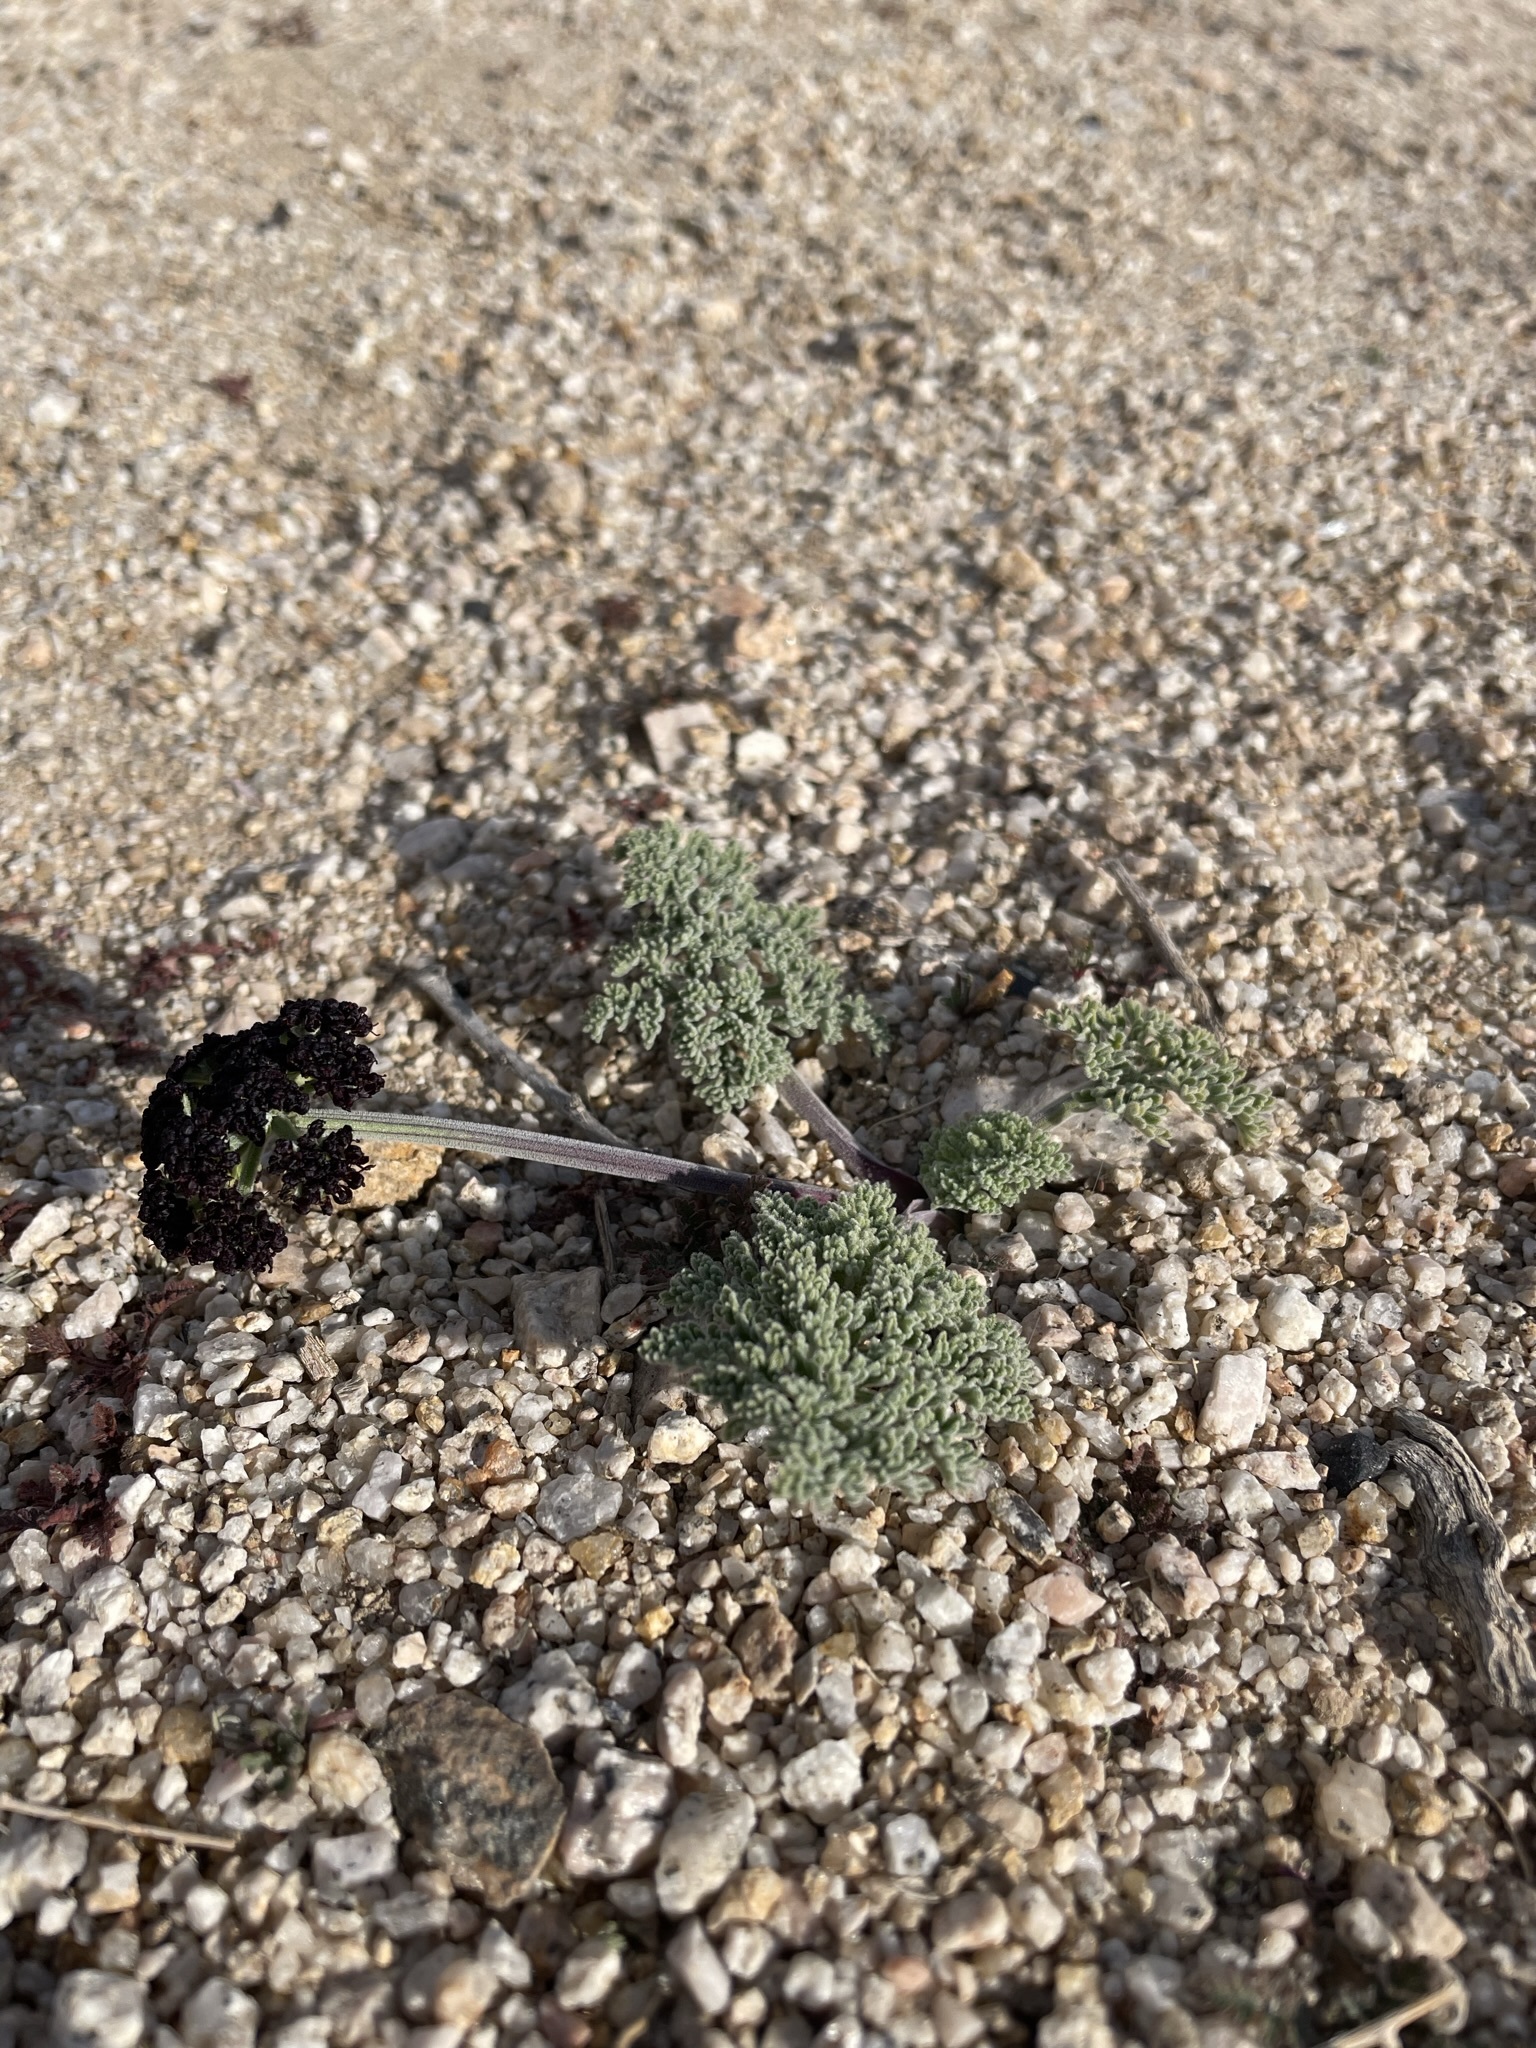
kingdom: Plantae
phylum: Tracheophyta
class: Magnoliopsida
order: Apiales
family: Apiaceae
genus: Lomatium
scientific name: Lomatium mohavense
